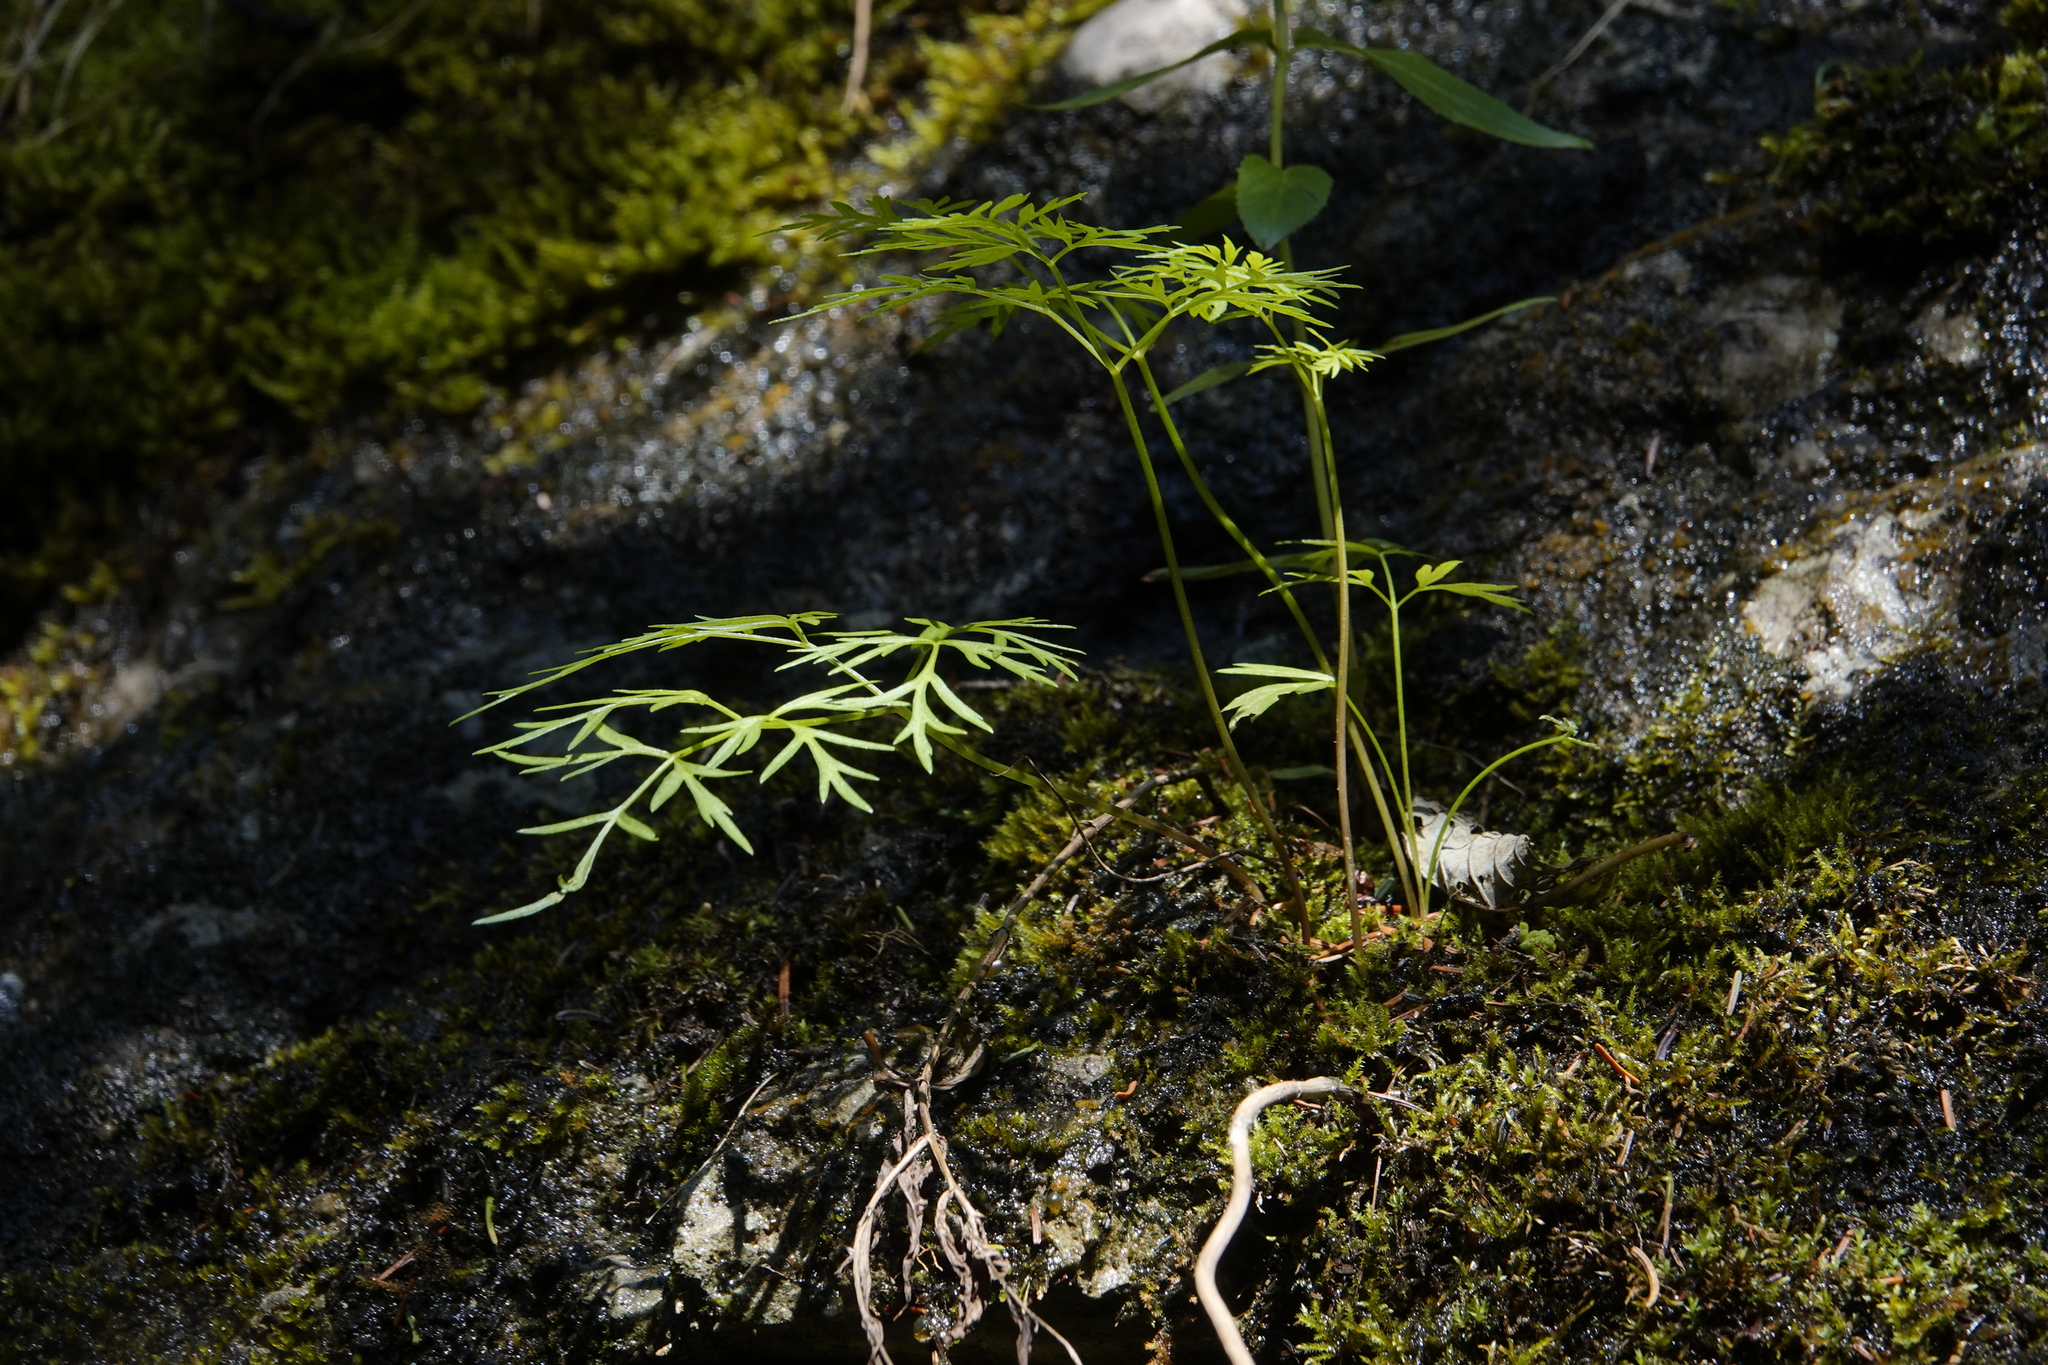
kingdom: Plantae
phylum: Tracheophyta
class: Magnoliopsida
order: Apiales
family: Apiaceae
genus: Cicuta
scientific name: Cicuta bulbifera
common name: Bulb-bearing water-hemlock
